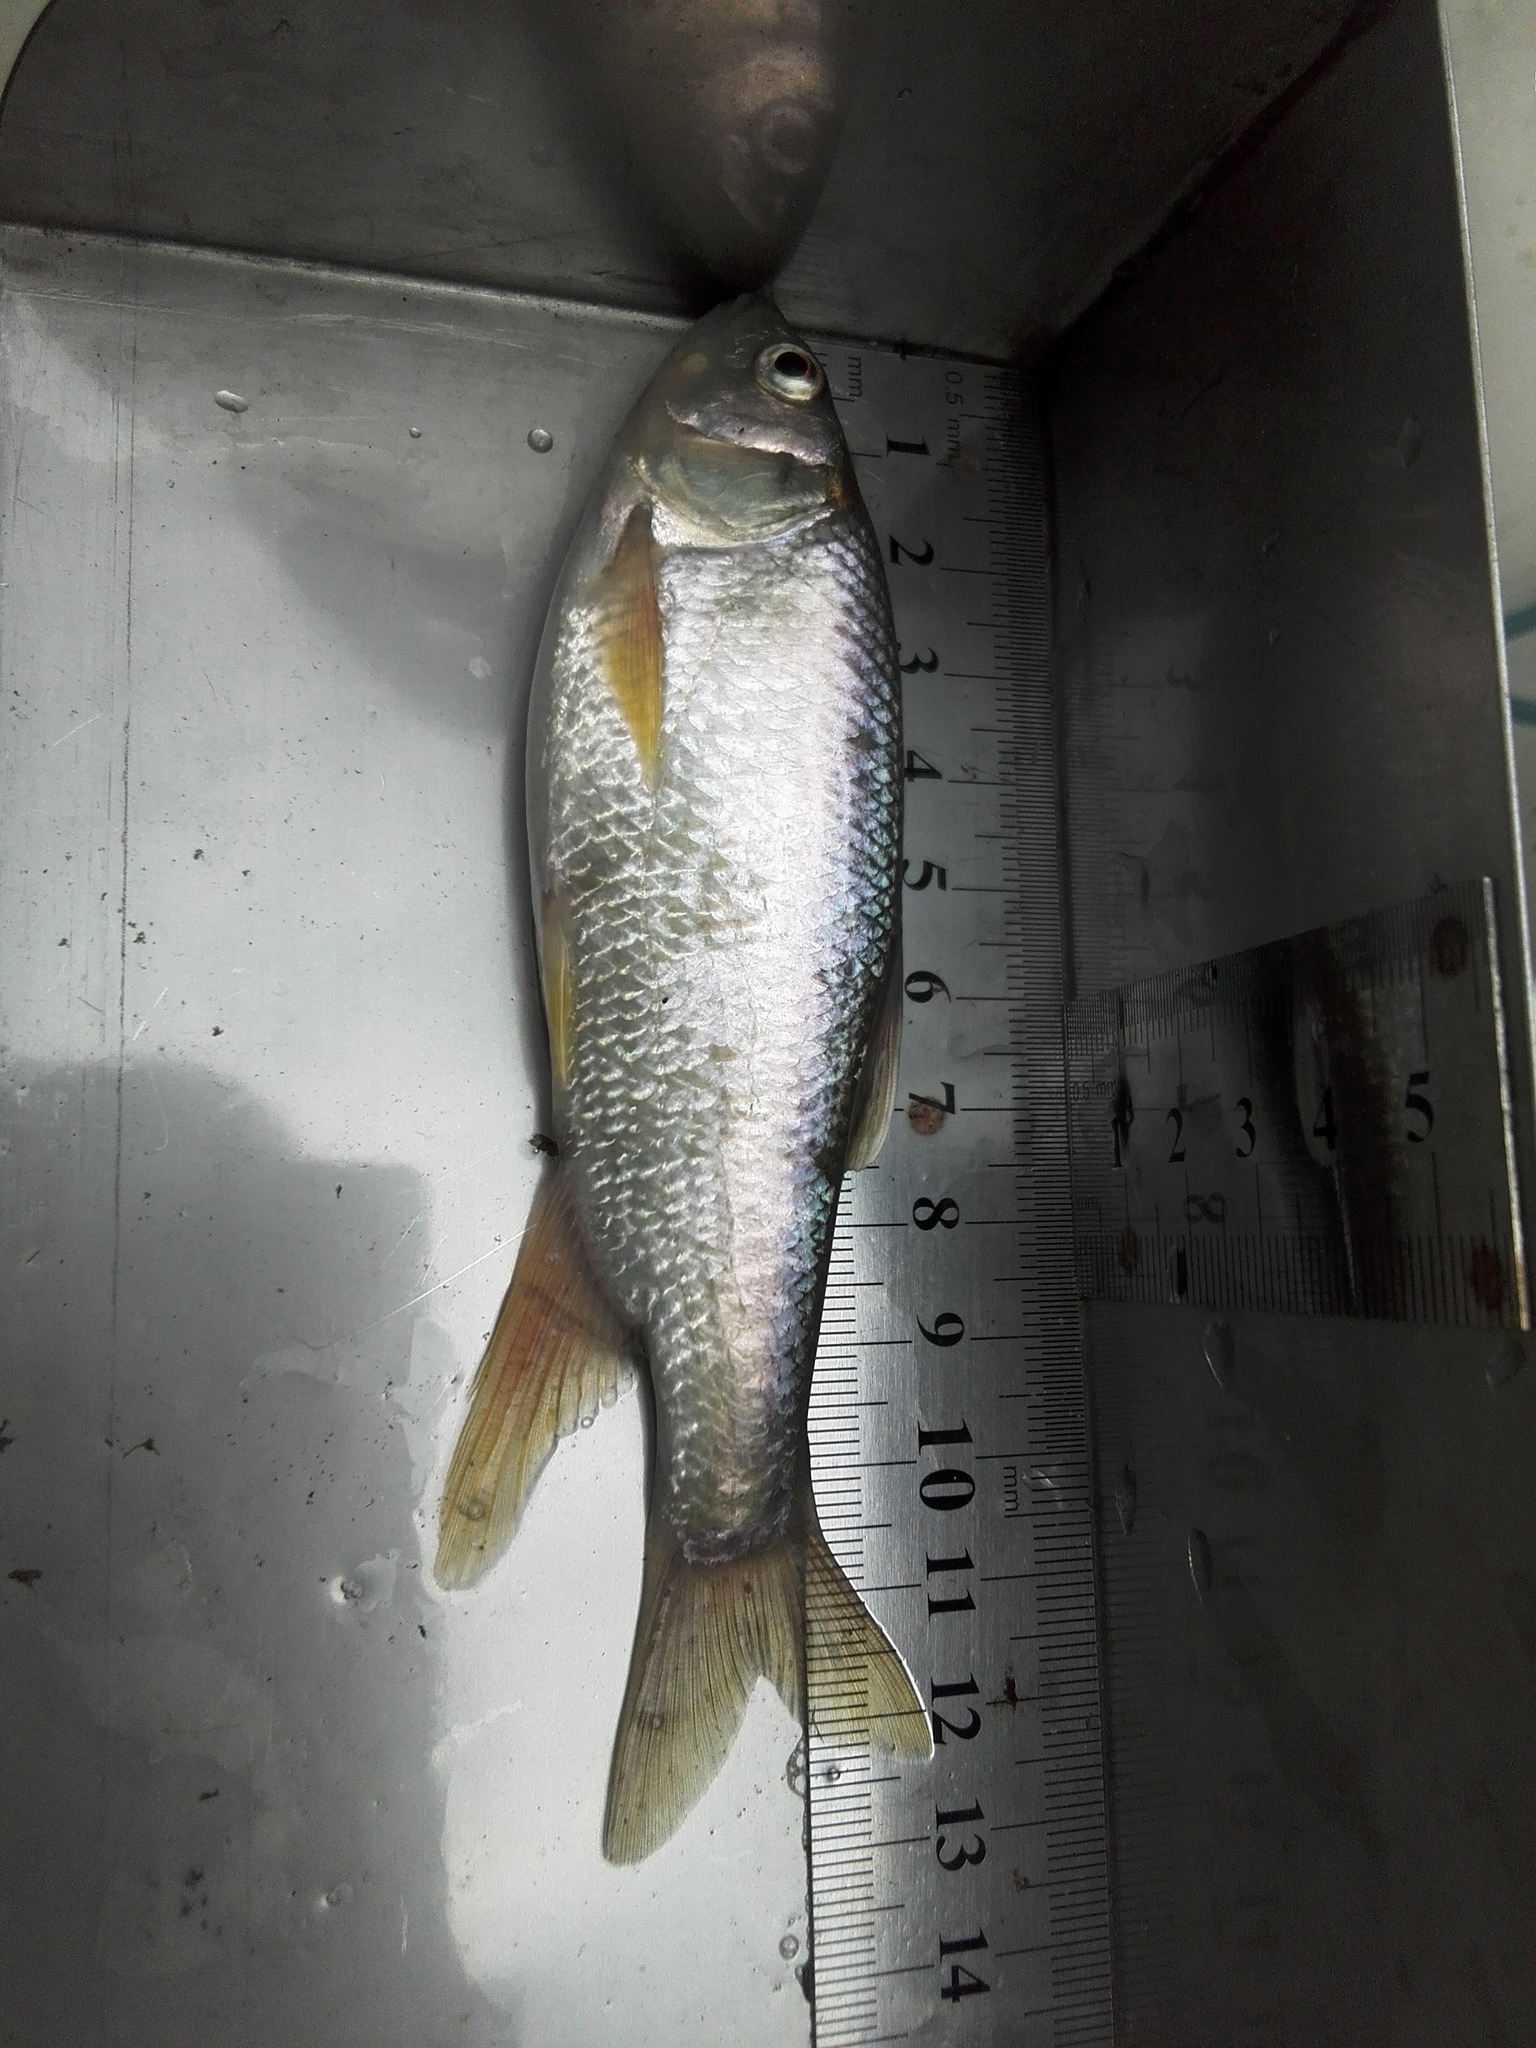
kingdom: Animalia
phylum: Chordata
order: Cypriniformes
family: Cyprinidae
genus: Opsariichthys
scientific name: Opsariichthys pachycephalus
